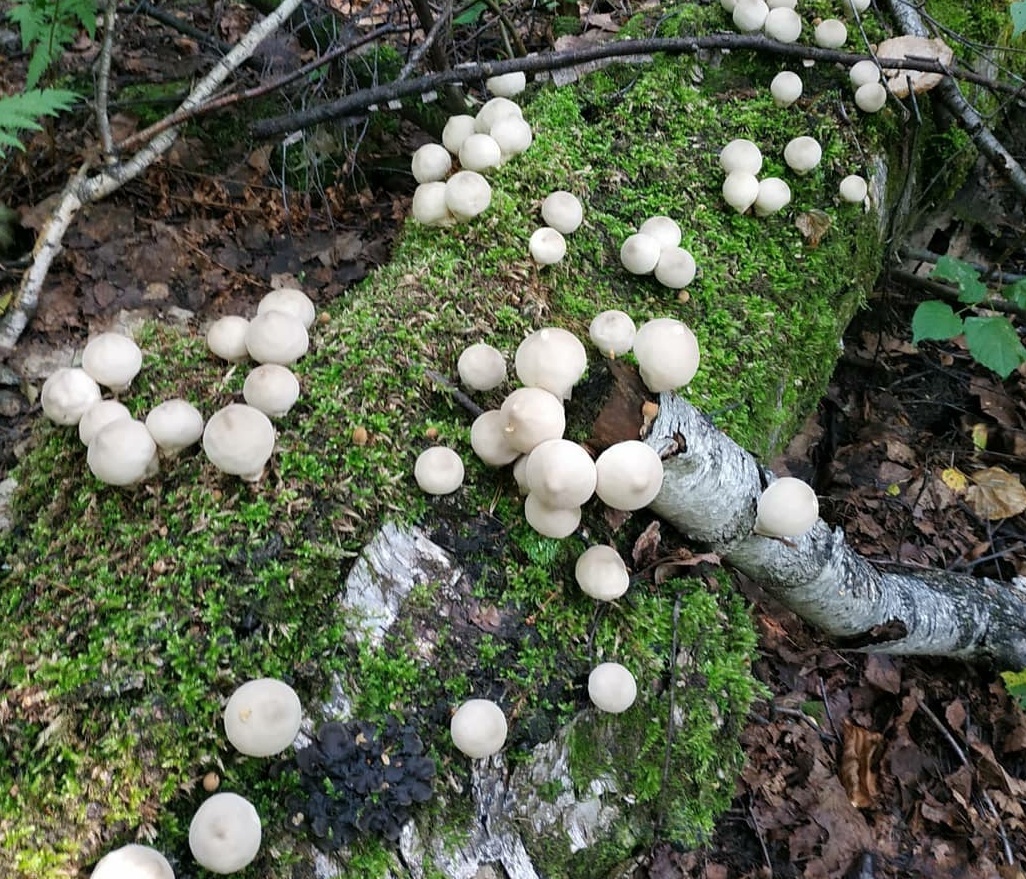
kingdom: Fungi
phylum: Basidiomycota
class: Agaricomycetes
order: Agaricales
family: Lycoperdaceae
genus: Apioperdon
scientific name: Apioperdon pyriforme
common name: Pear-shaped puffball
